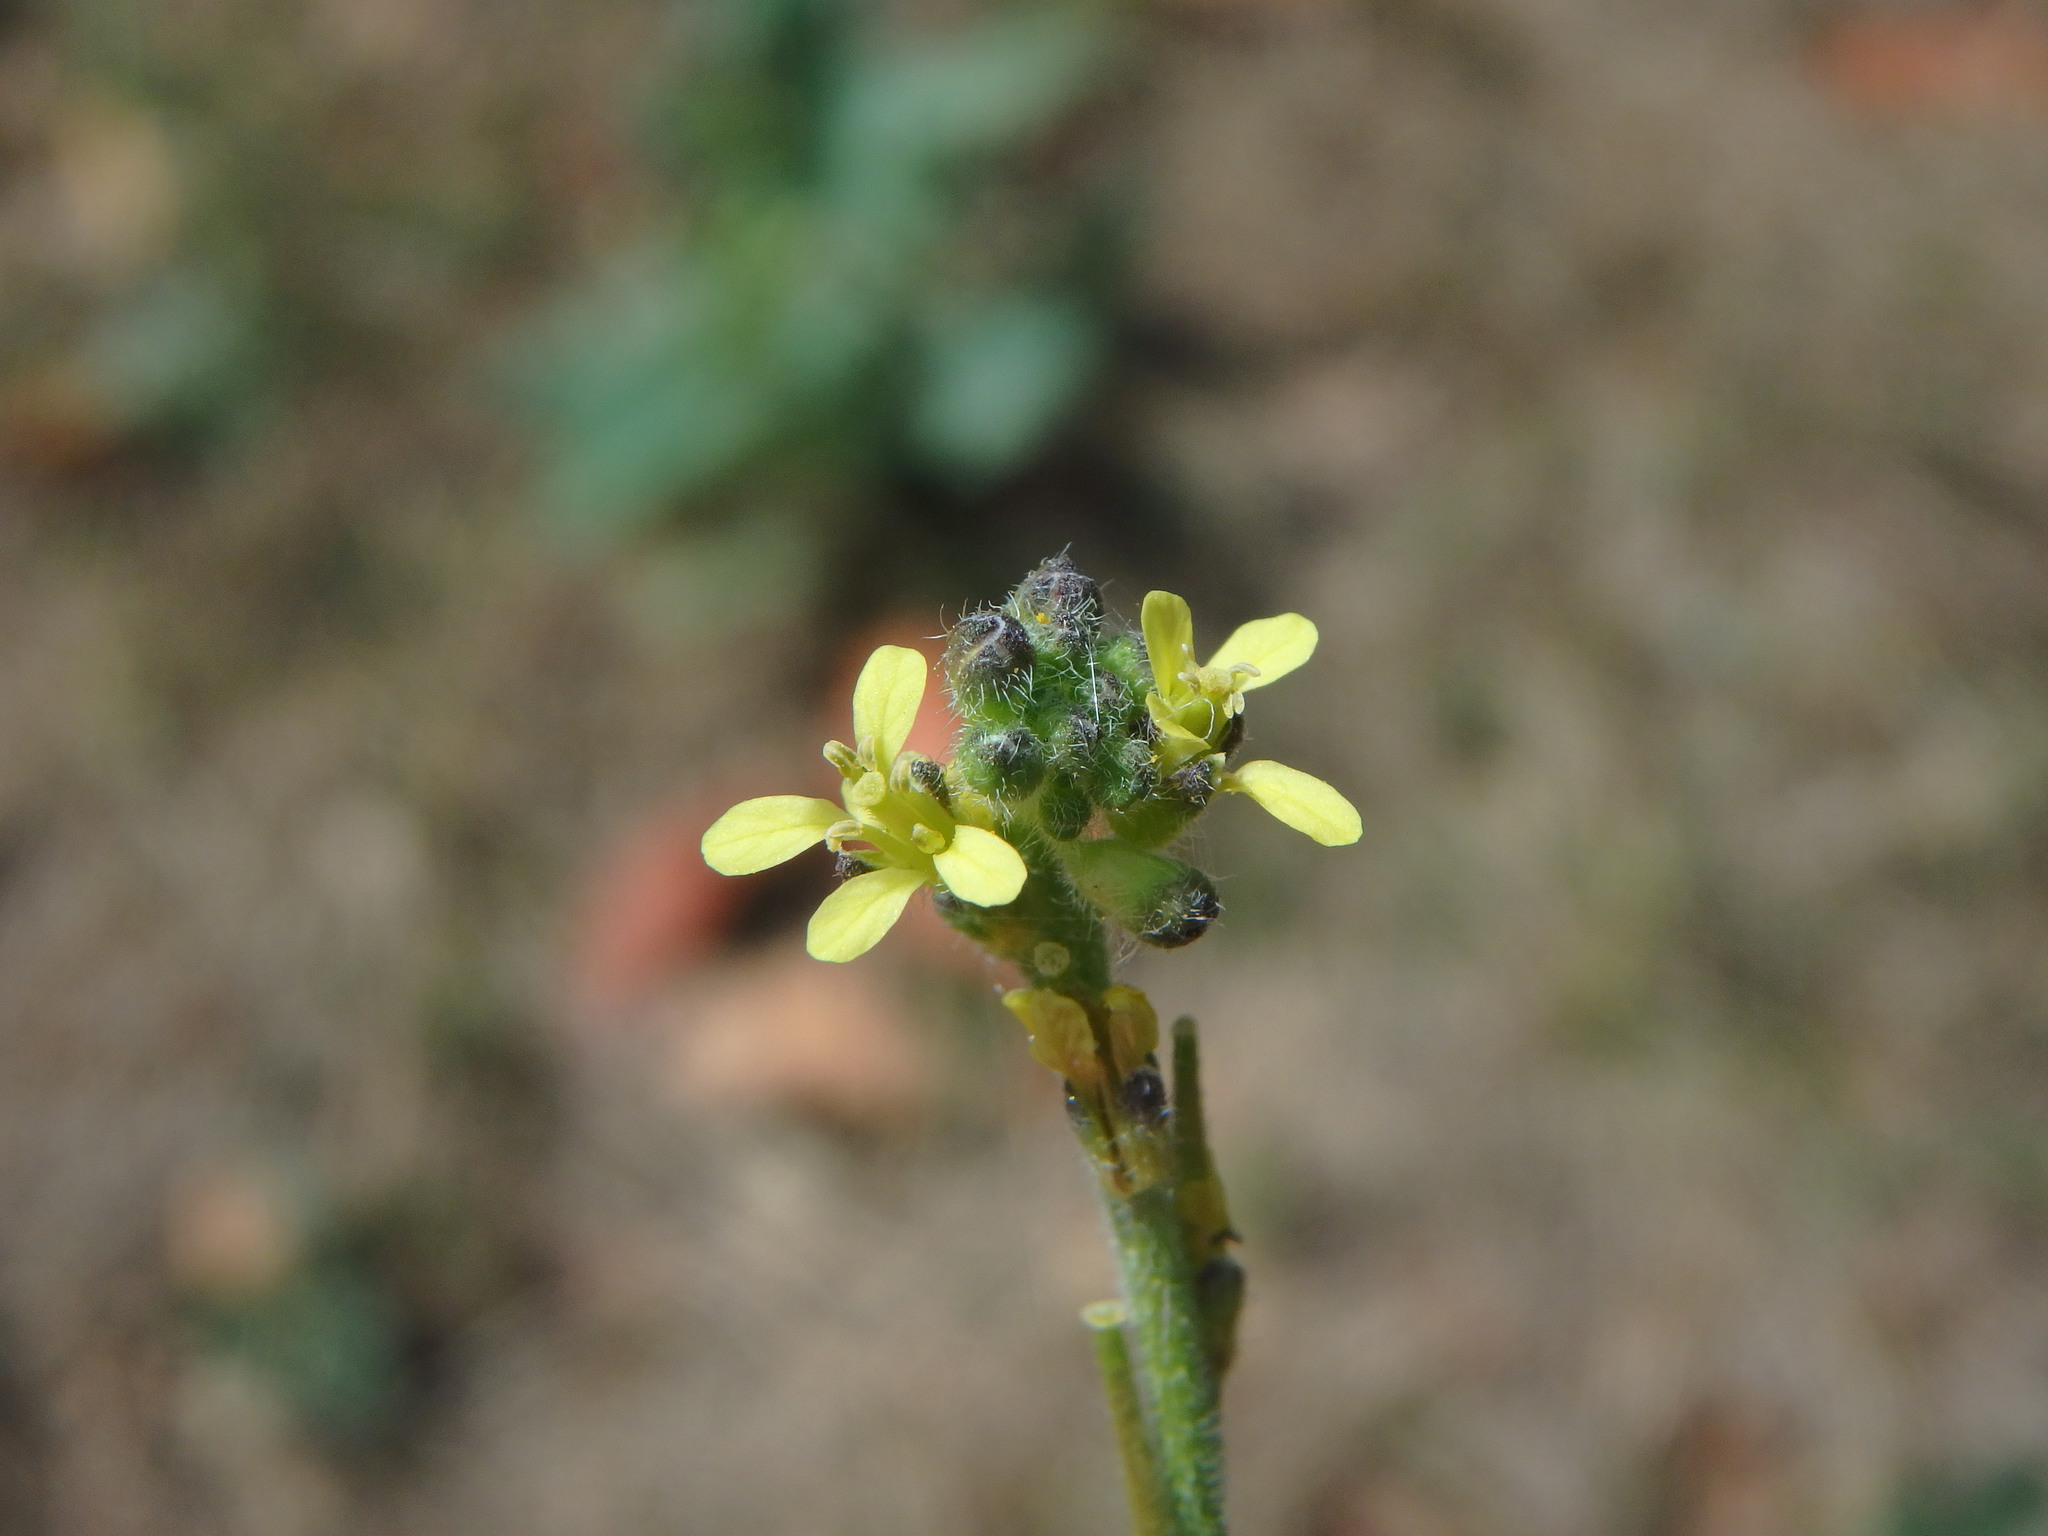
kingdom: Plantae
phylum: Tracheophyta
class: Magnoliopsida
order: Brassicales
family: Brassicaceae
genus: Sisymbrium
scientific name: Sisymbrium officinale
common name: Hedge mustard
